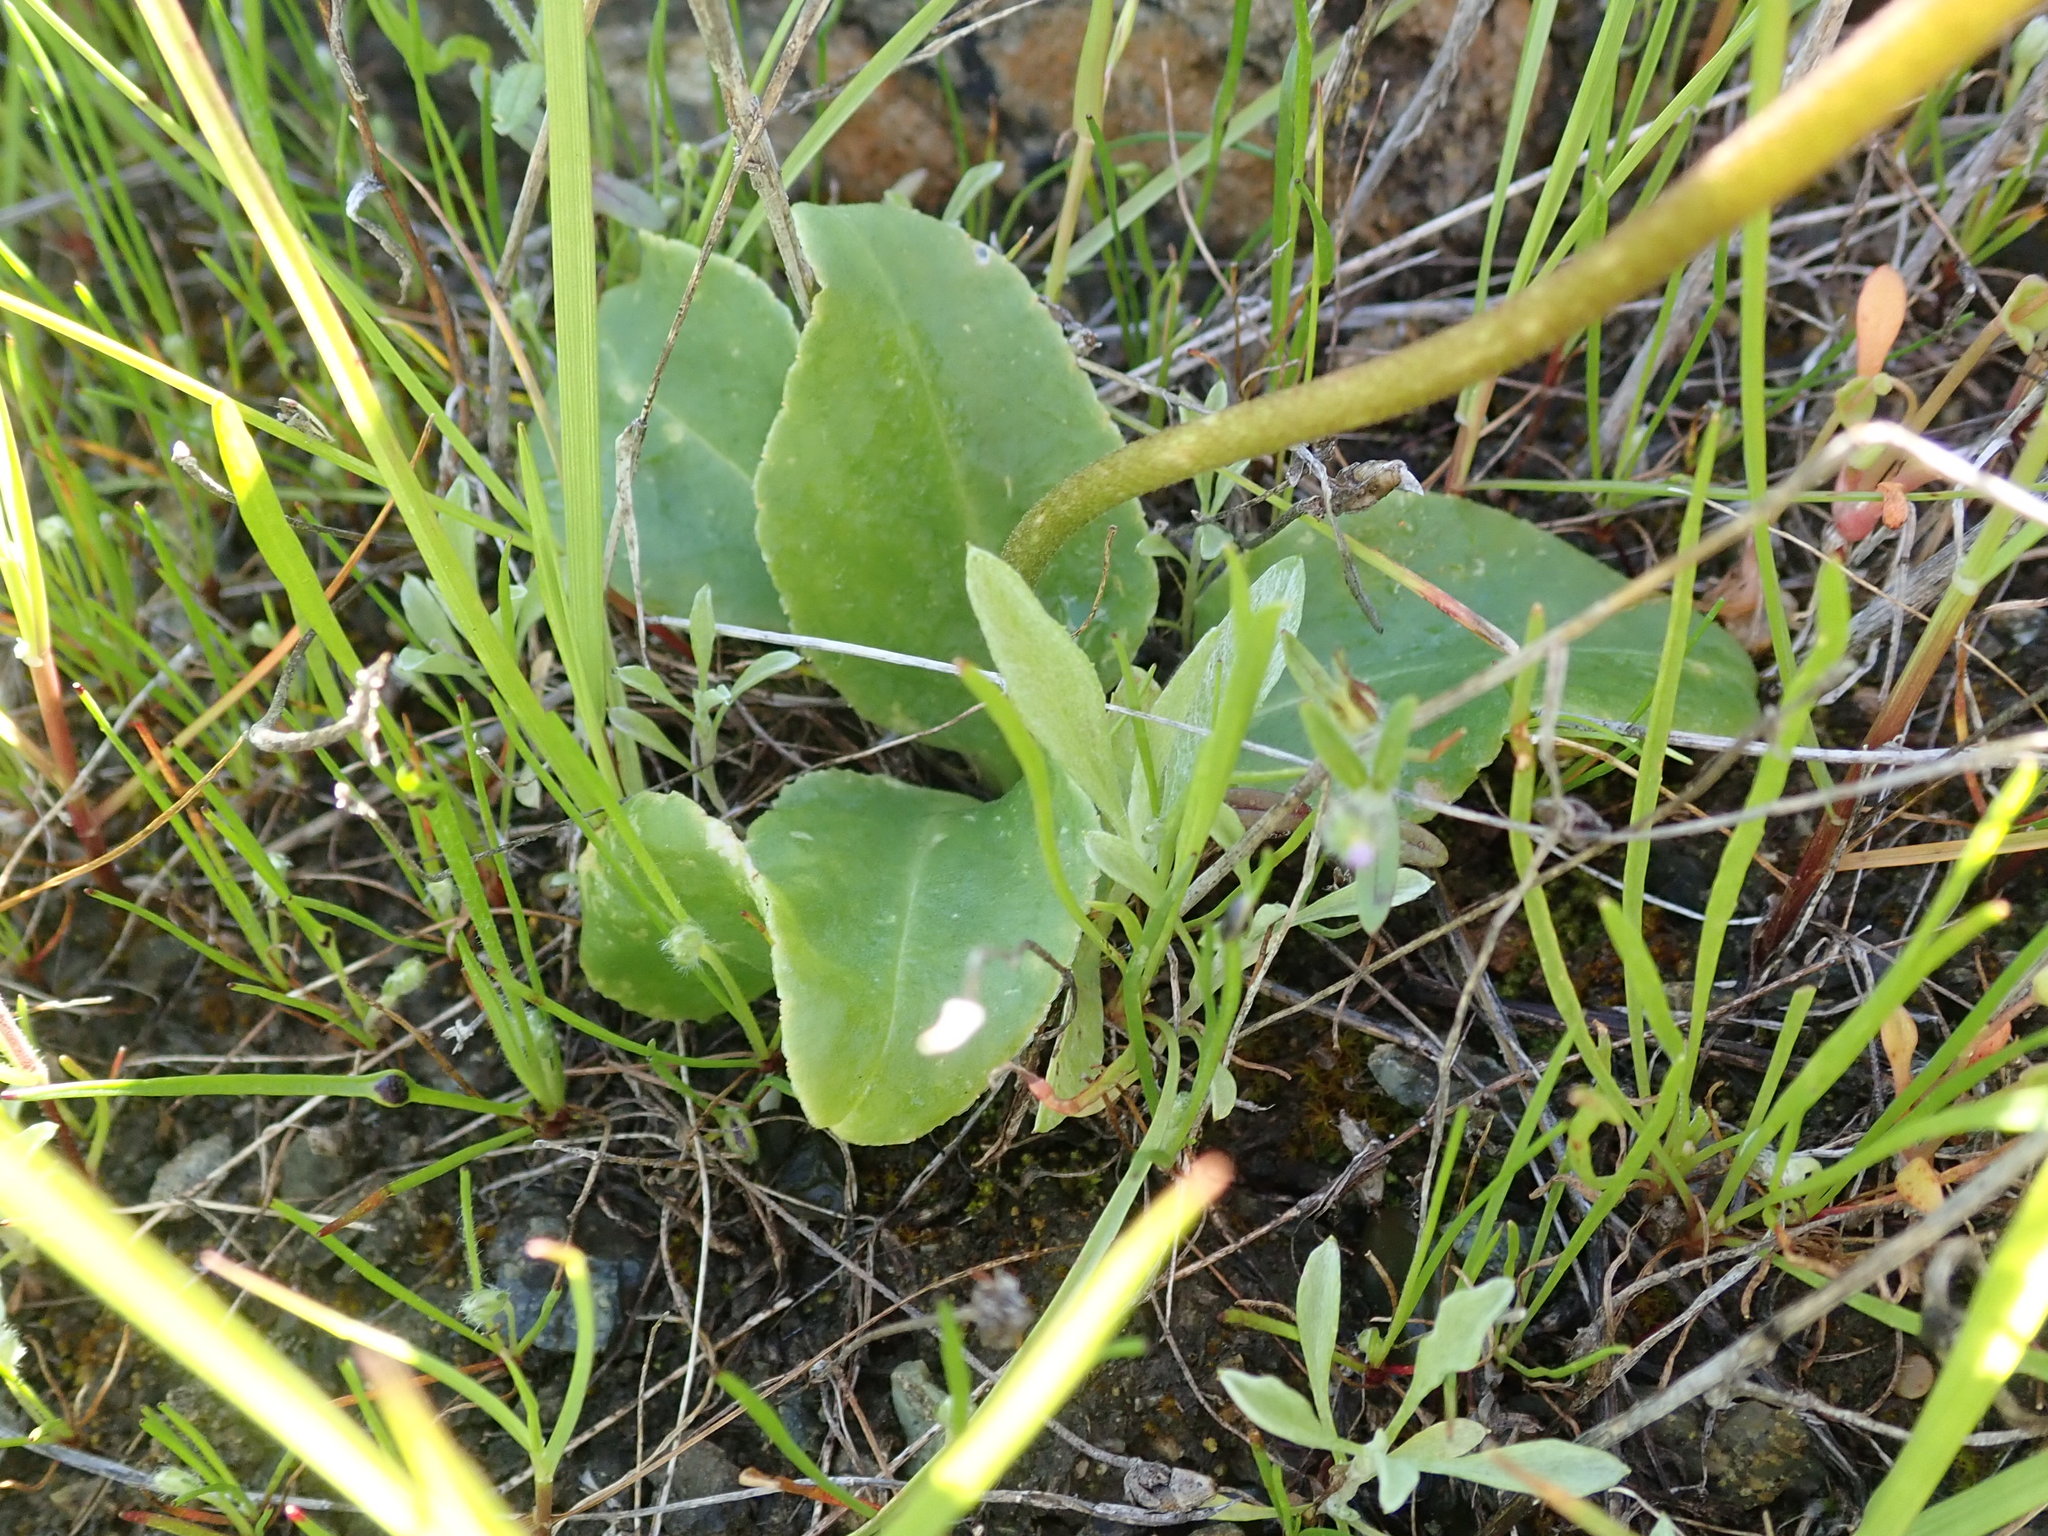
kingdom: Plantae
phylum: Tracheophyta
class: Magnoliopsida
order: Ericales
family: Primulaceae
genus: Dodecatheon
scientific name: Dodecatheon hendersonii
